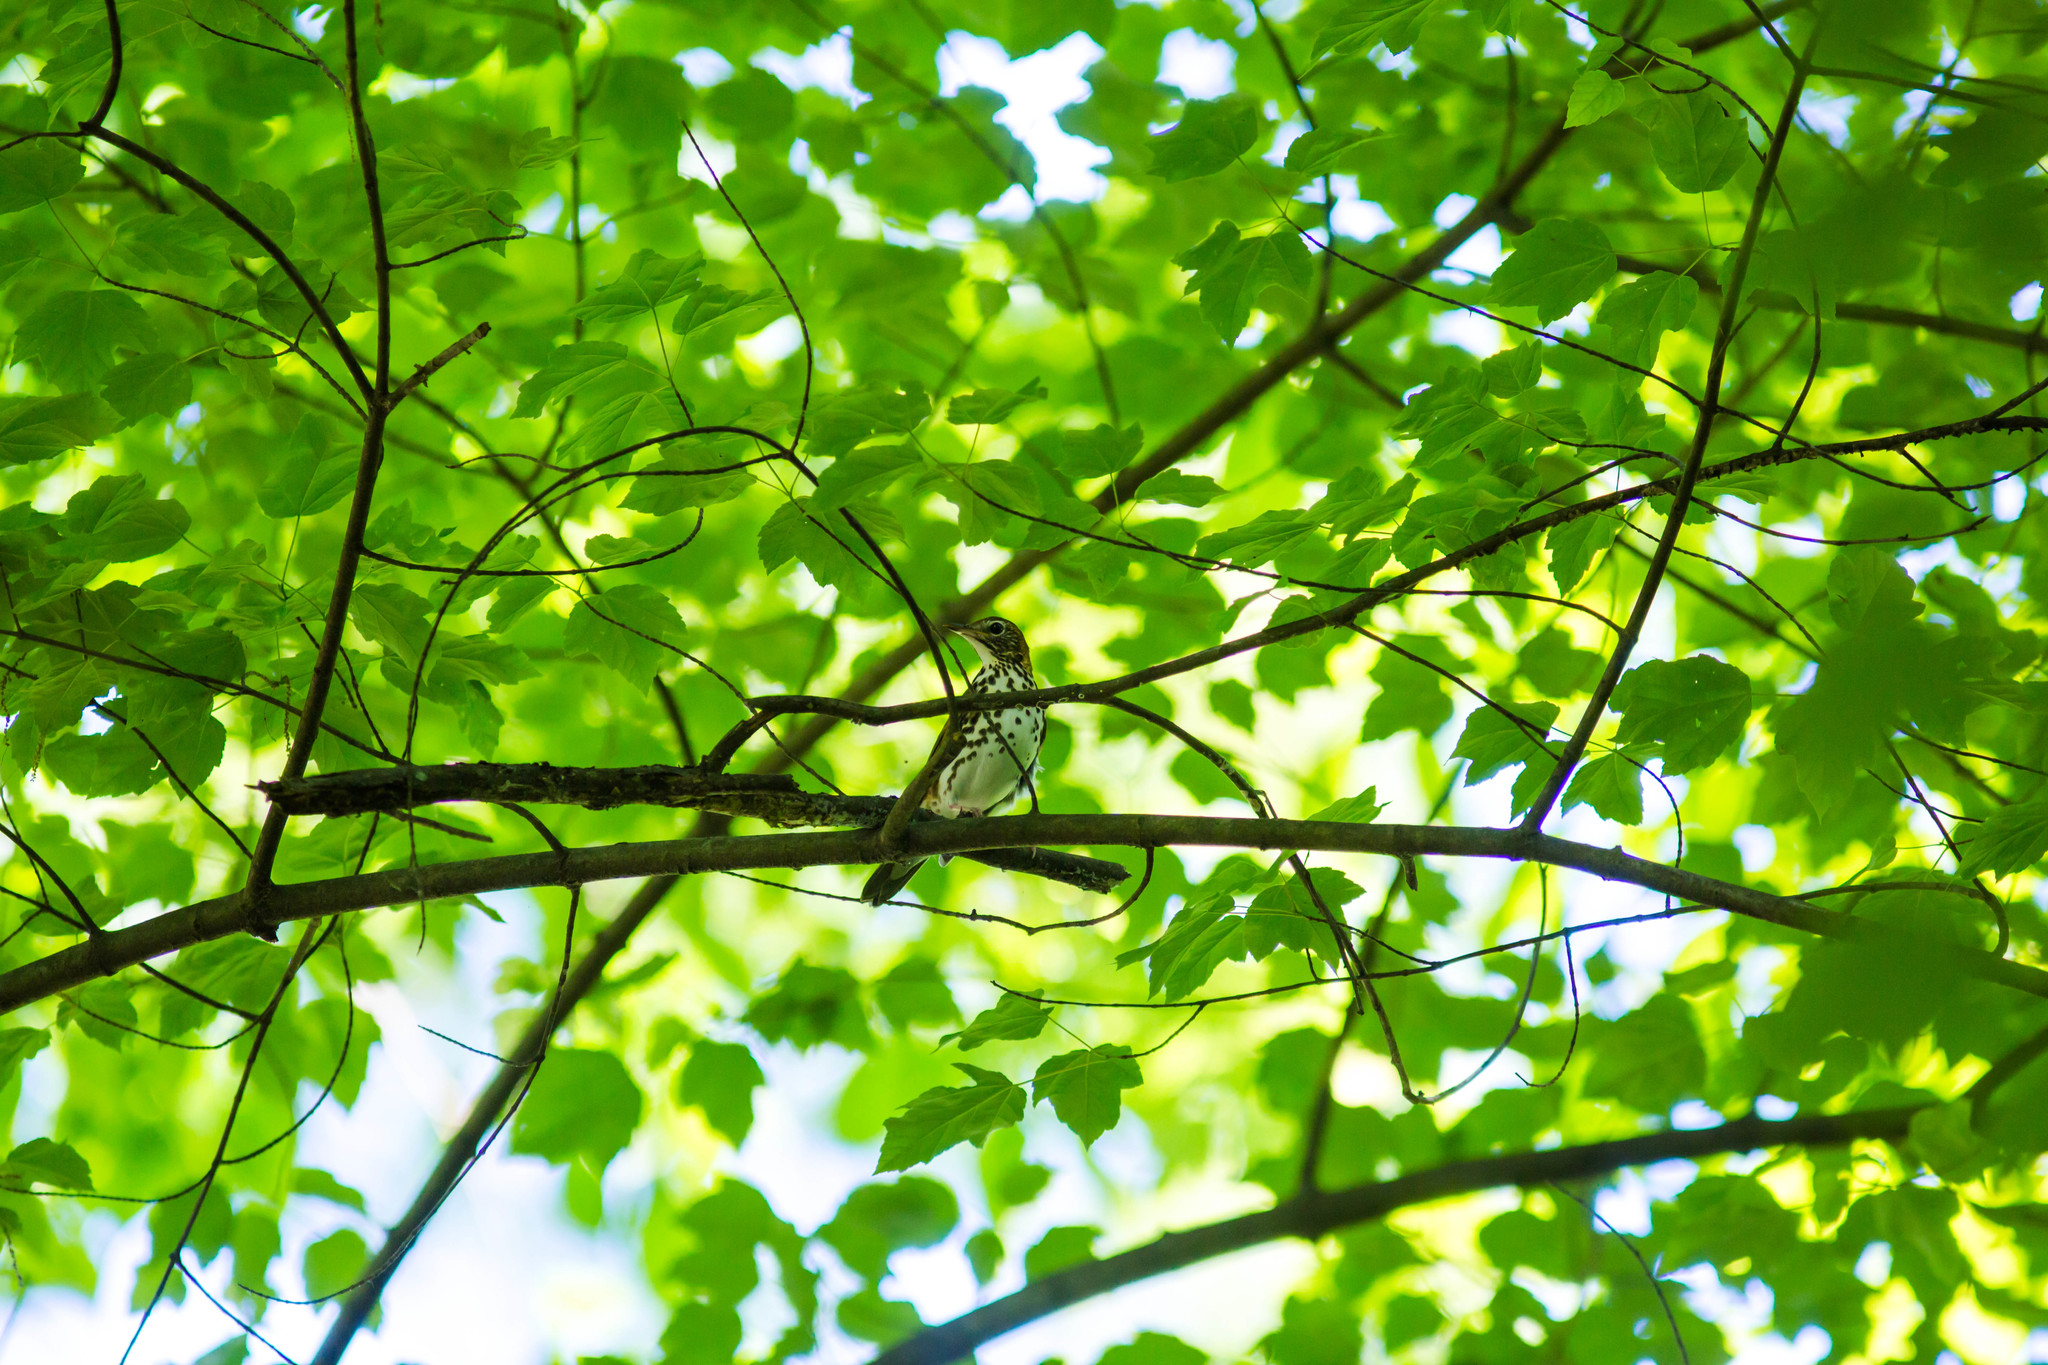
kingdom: Animalia
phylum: Chordata
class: Aves
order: Passeriformes
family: Turdidae
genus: Hylocichla
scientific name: Hylocichla mustelina
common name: Wood thrush
